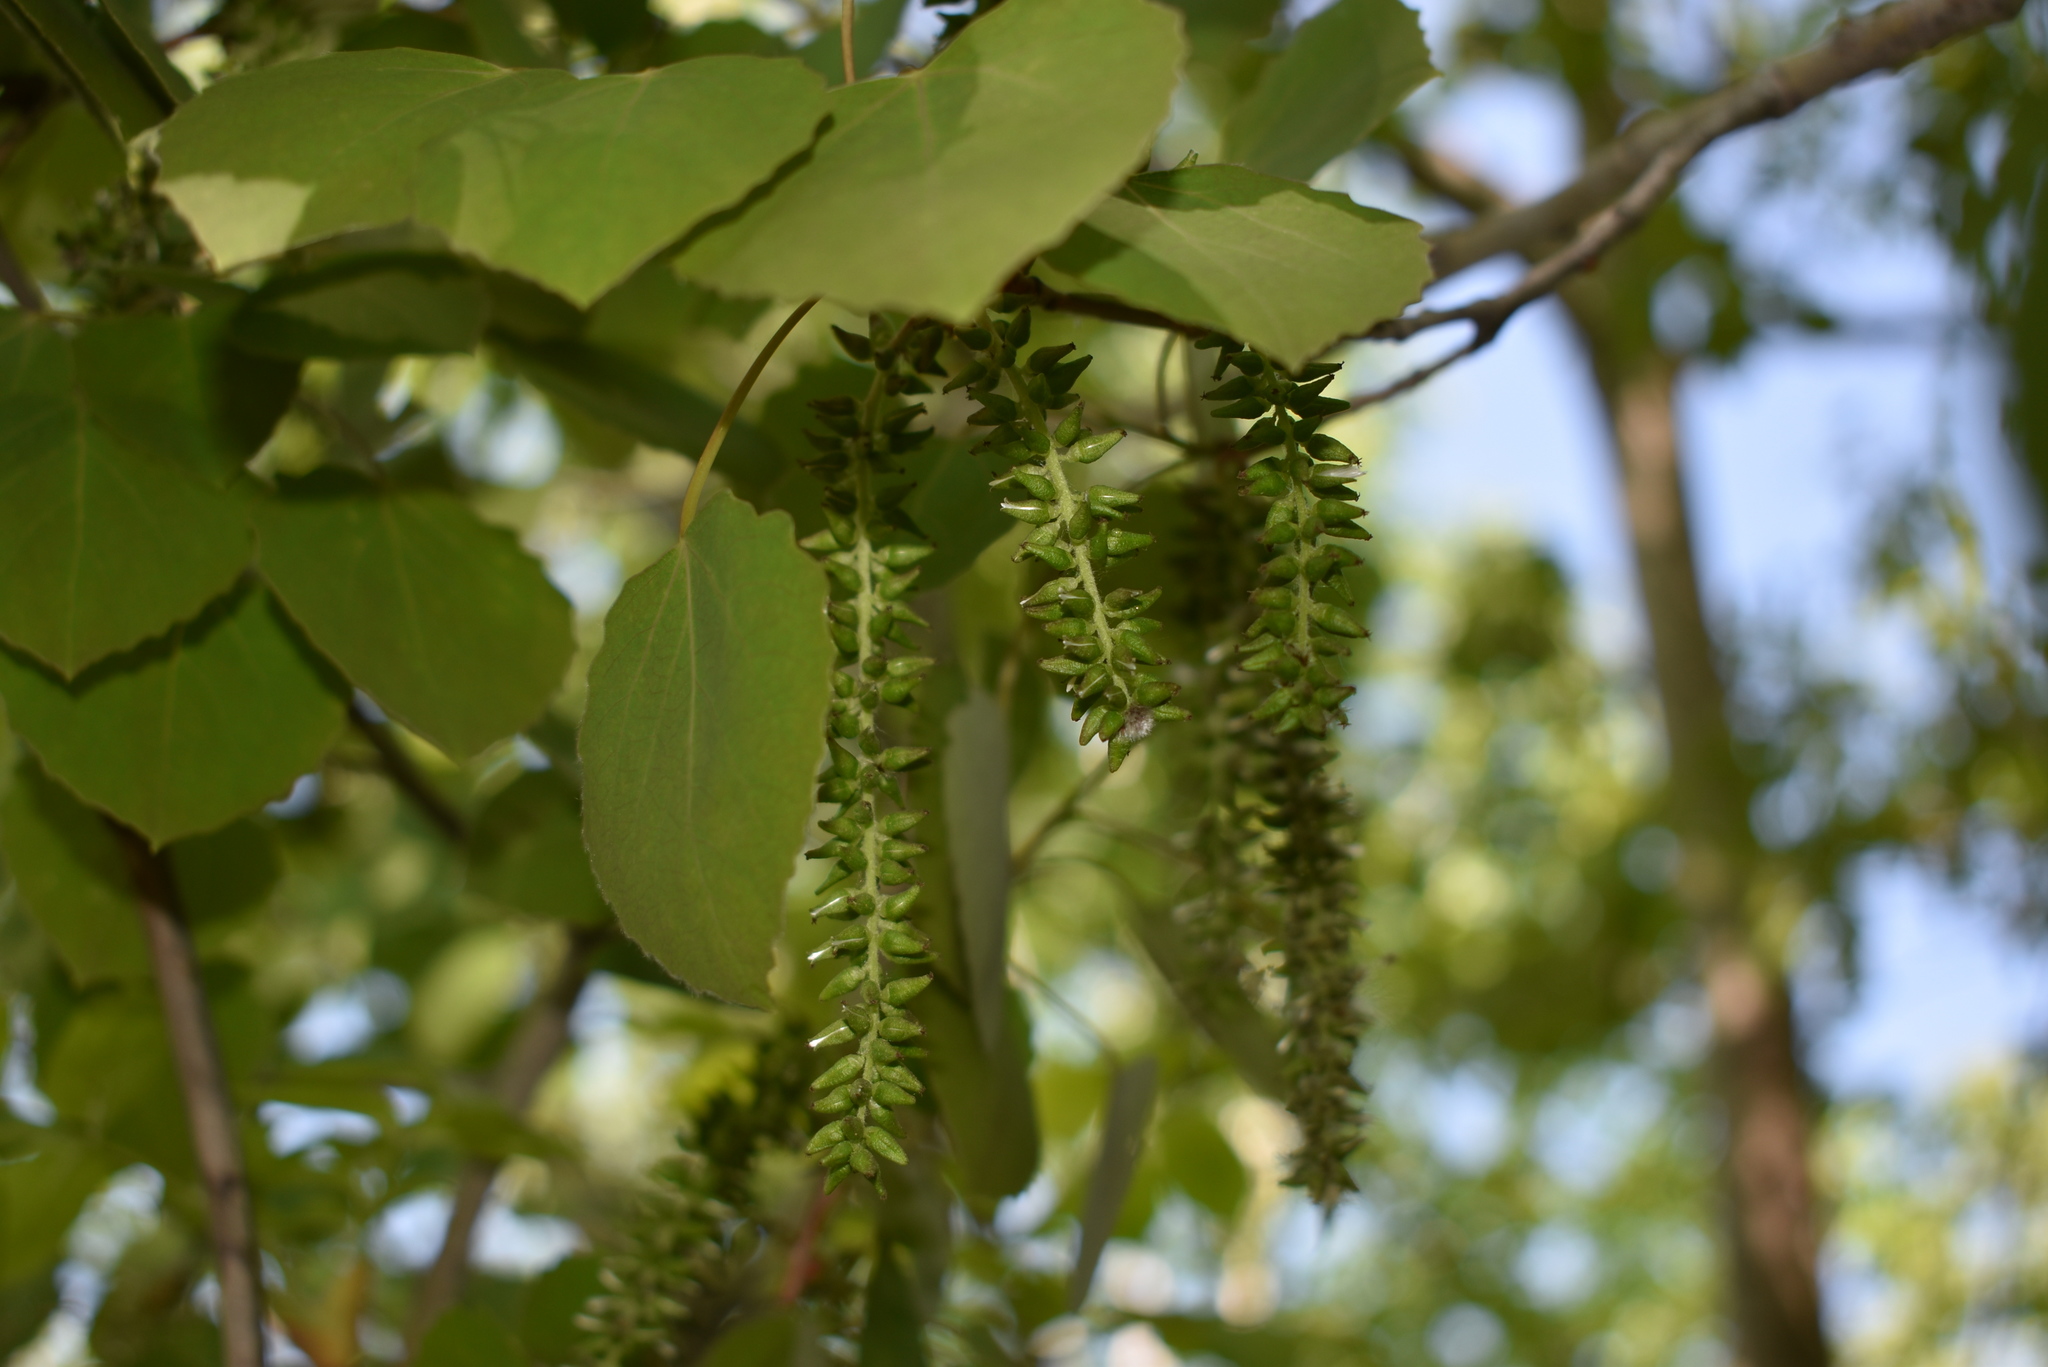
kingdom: Plantae
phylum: Tracheophyta
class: Magnoliopsida
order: Malpighiales
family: Salicaceae
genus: Populus
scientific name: Populus tremula
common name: European aspen
